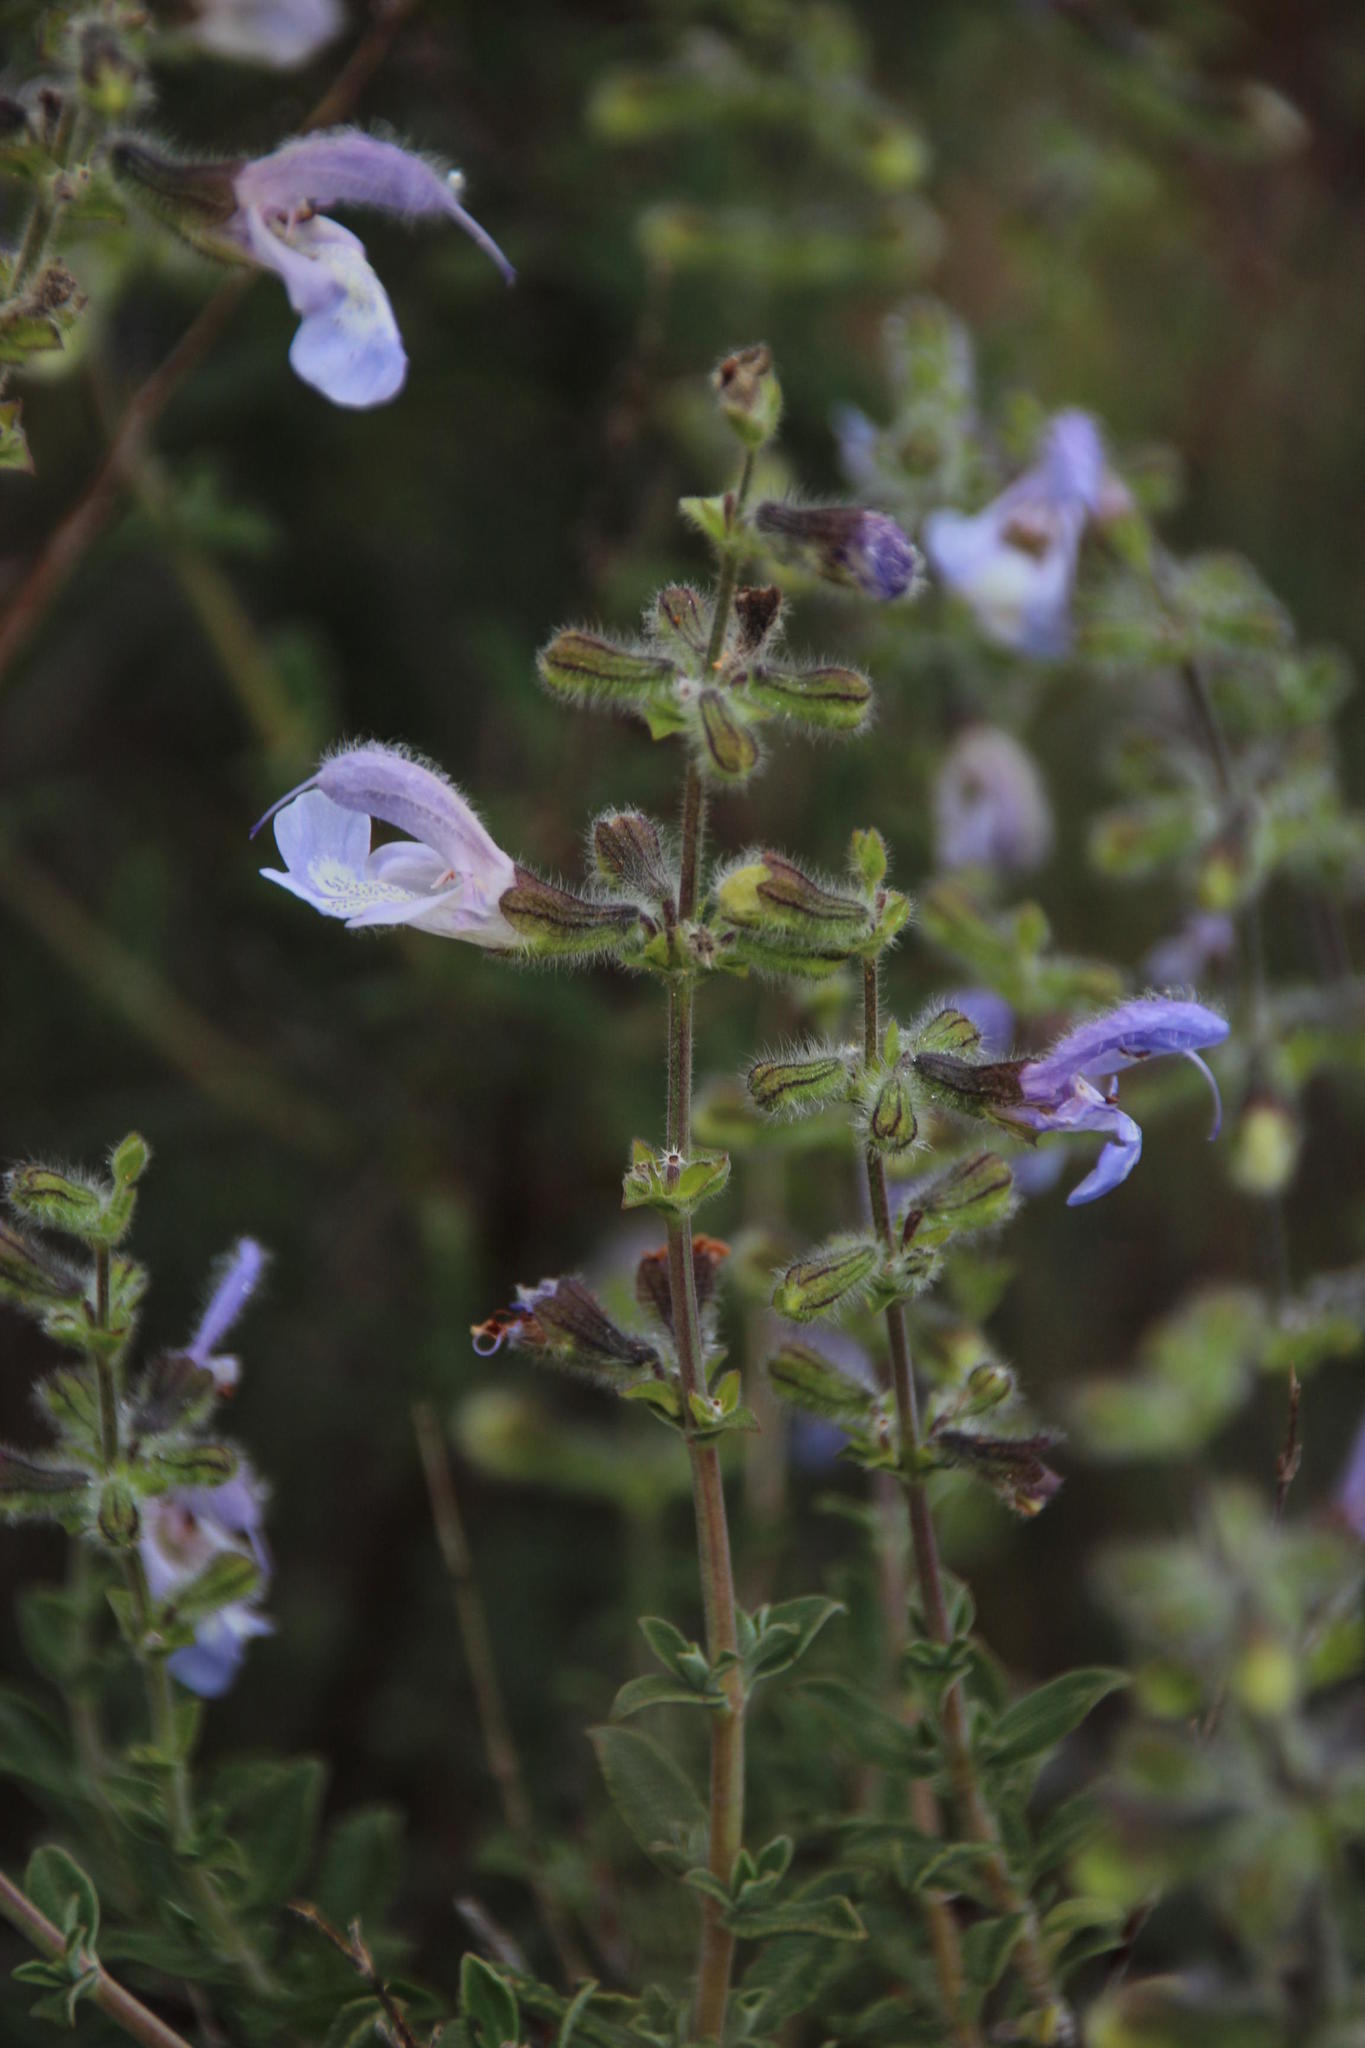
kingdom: Plantae
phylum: Tracheophyta
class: Magnoliopsida
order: Lamiales
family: Lamiaceae
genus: Salvia
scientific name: Salvia africana
